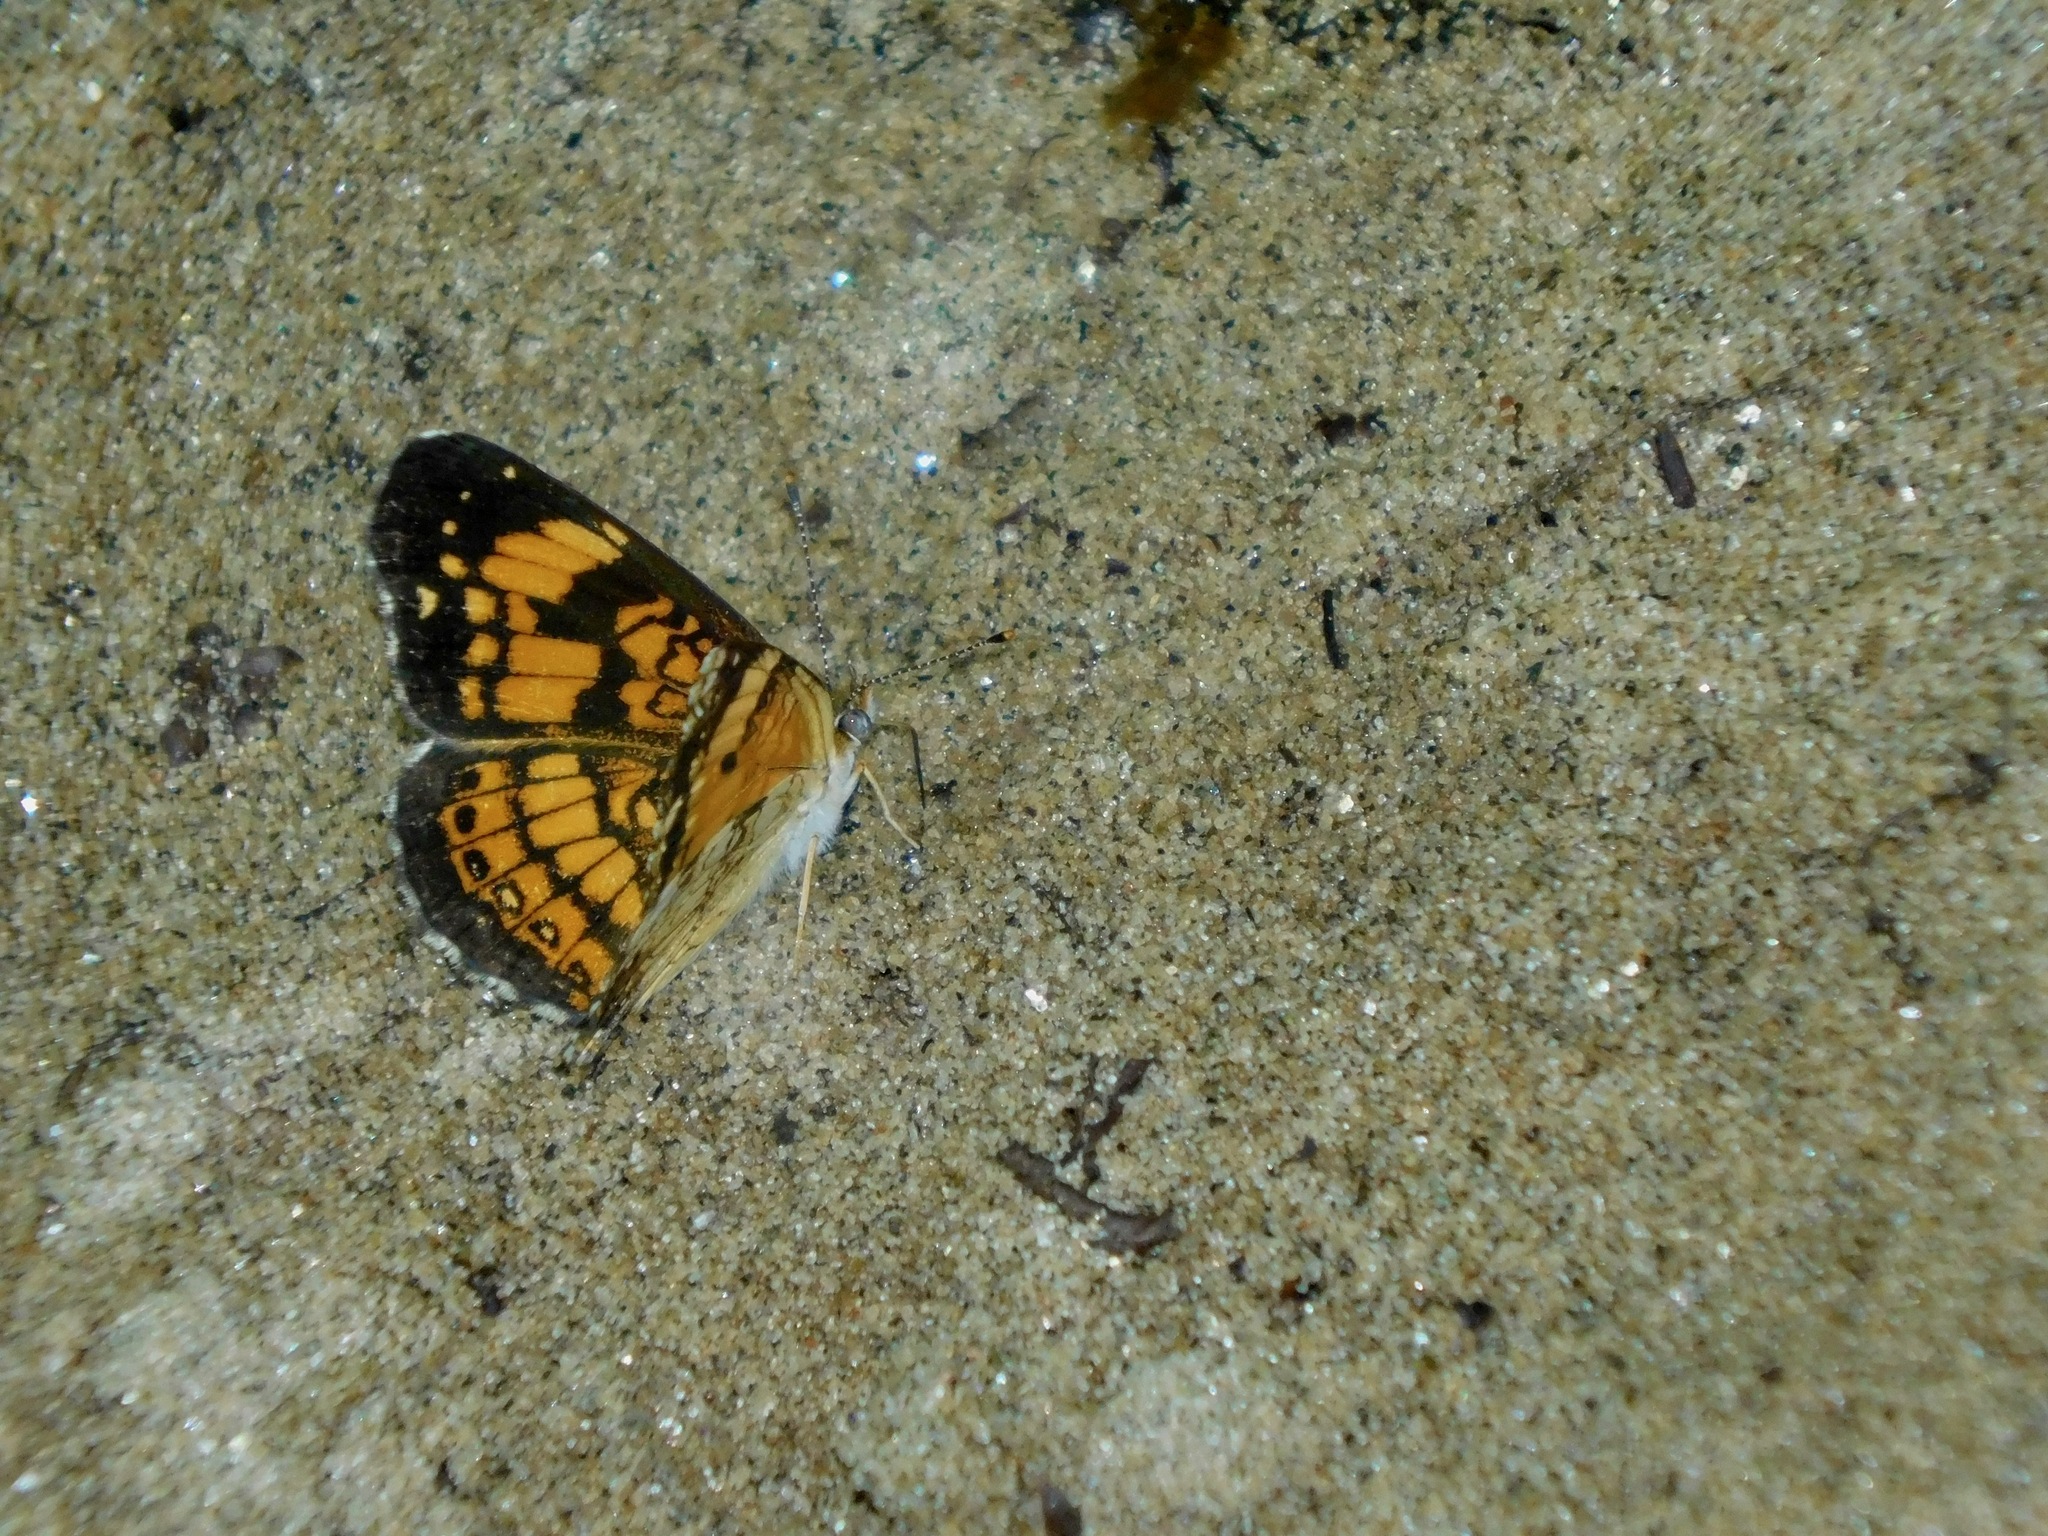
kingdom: Animalia
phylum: Arthropoda
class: Insecta
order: Lepidoptera
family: Nymphalidae
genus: Chlosyne
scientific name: Chlosyne nycteis
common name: Silvery checkerspot
